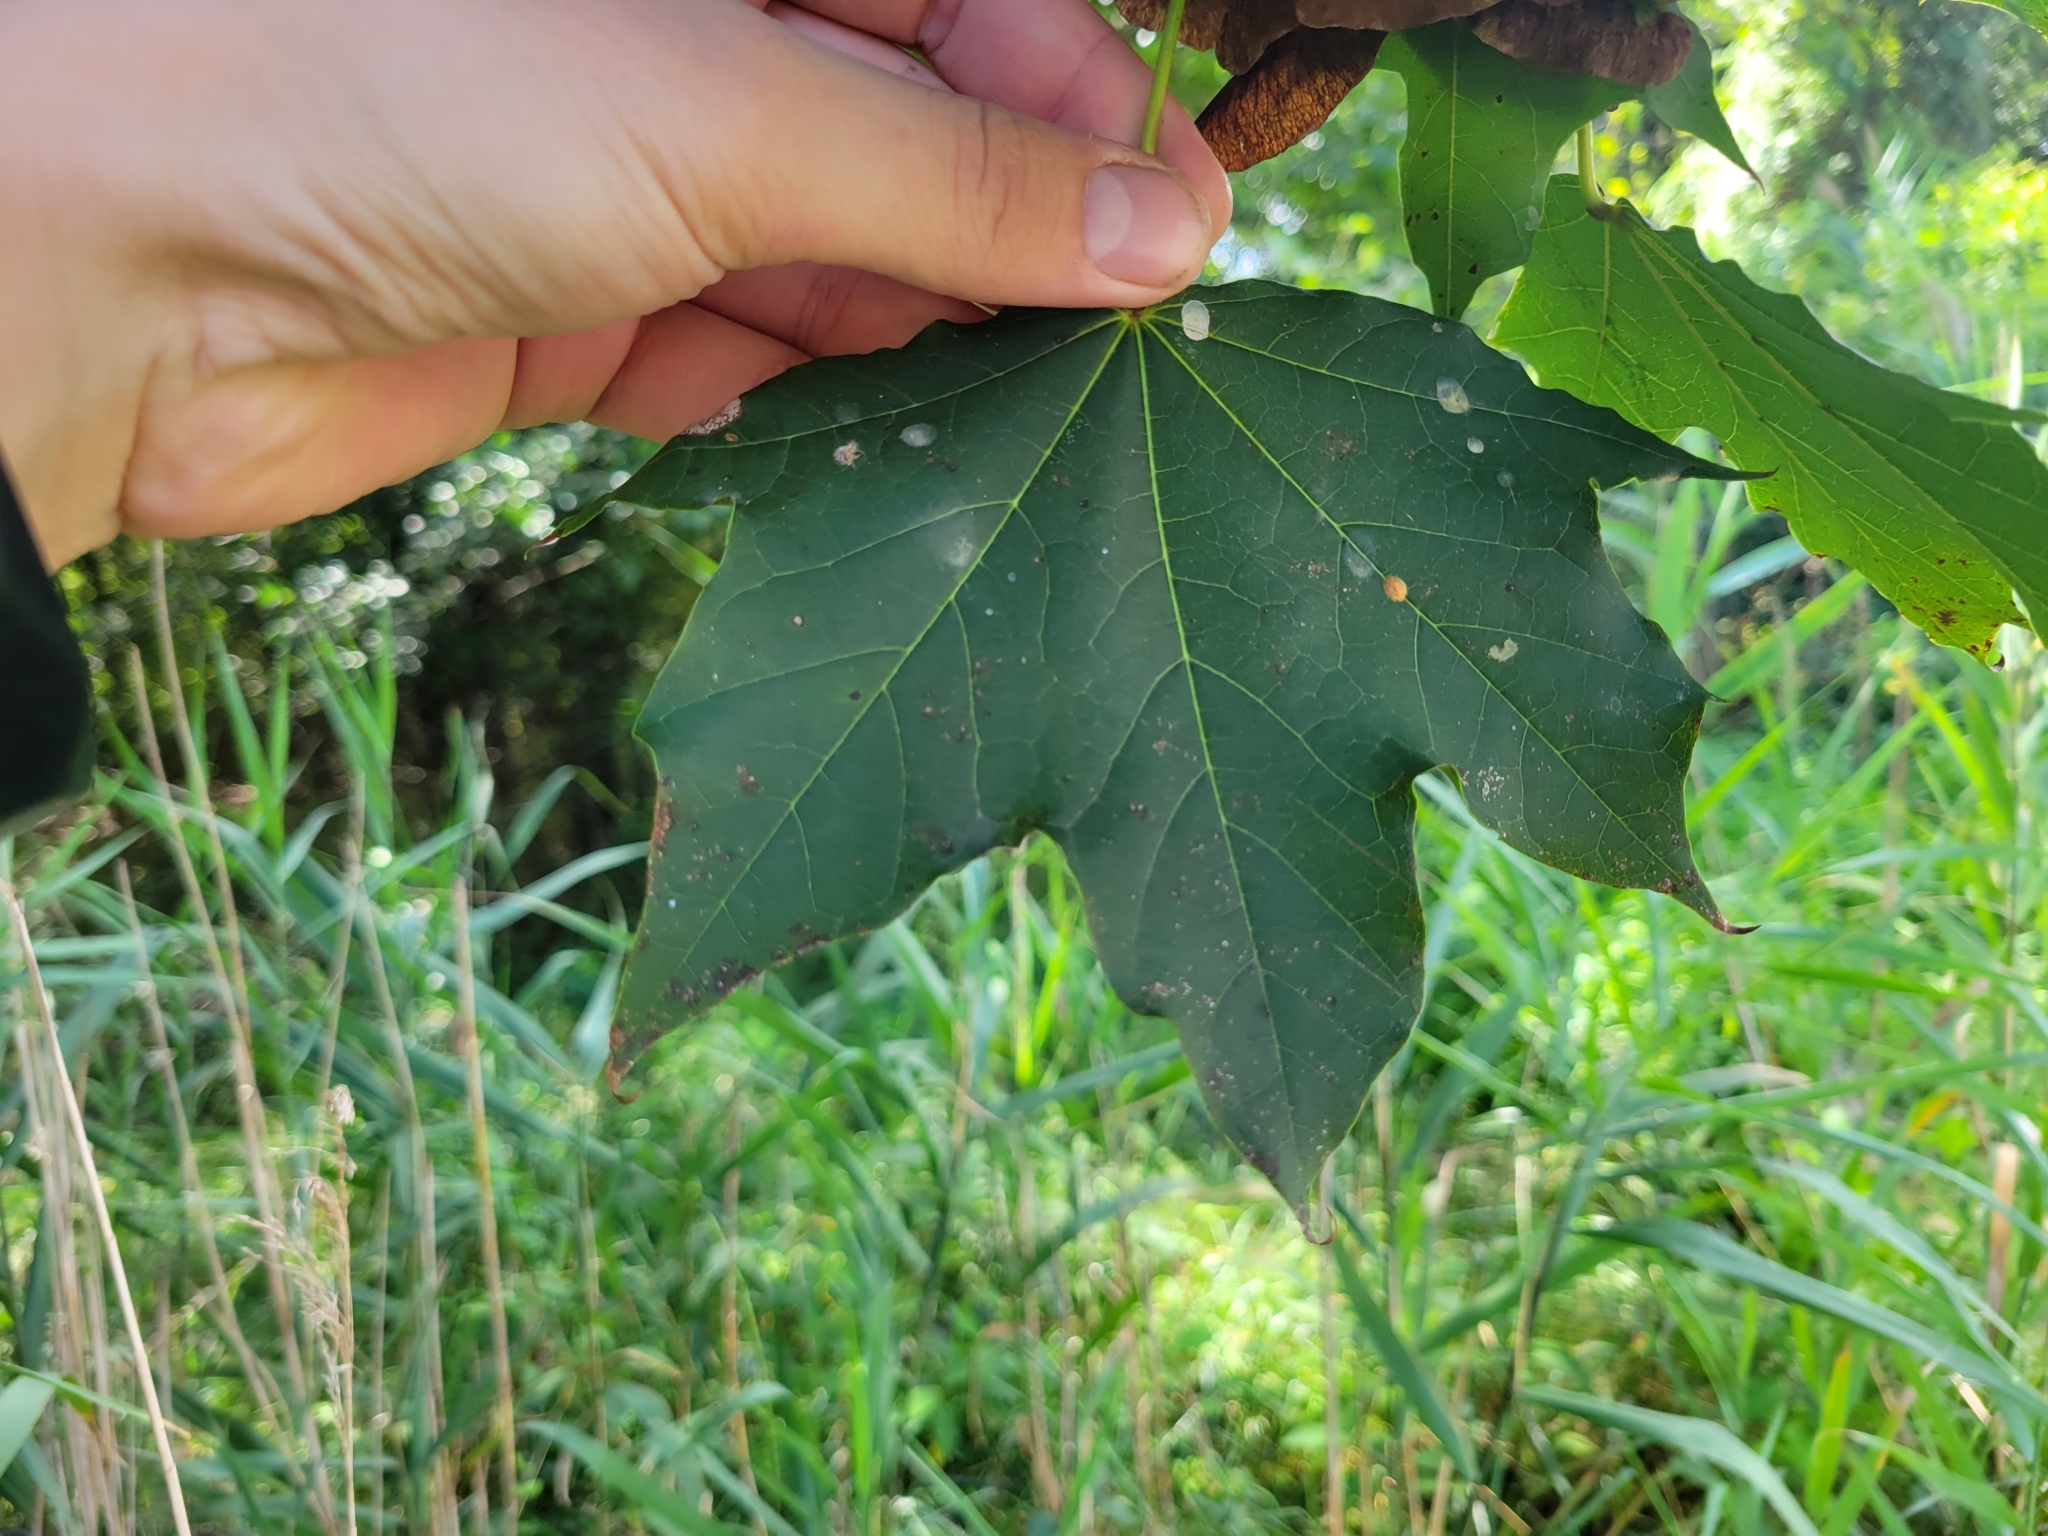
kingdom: Plantae
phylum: Tracheophyta
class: Magnoliopsida
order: Sapindales
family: Sapindaceae
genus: Acer
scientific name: Acer platanoides
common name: Norway maple
